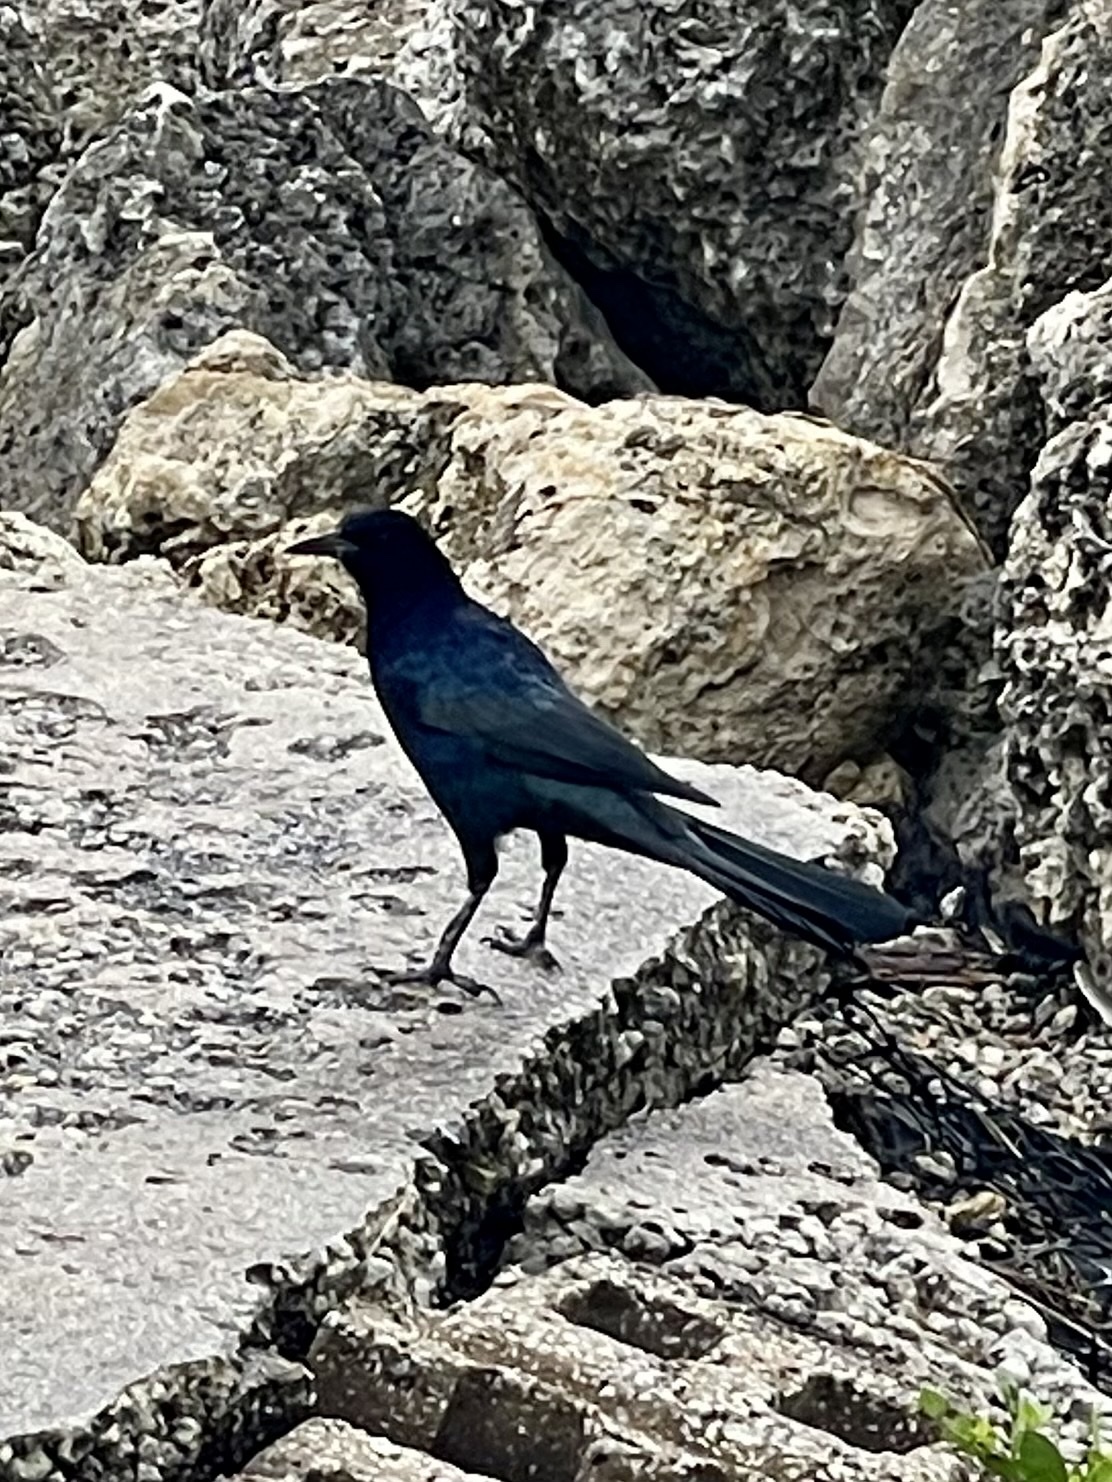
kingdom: Animalia
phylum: Chordata
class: Aves
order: Passeriformes
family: Icteridae
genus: Quiscalus
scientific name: Quiscalus major
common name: Boat-tailed grackle
